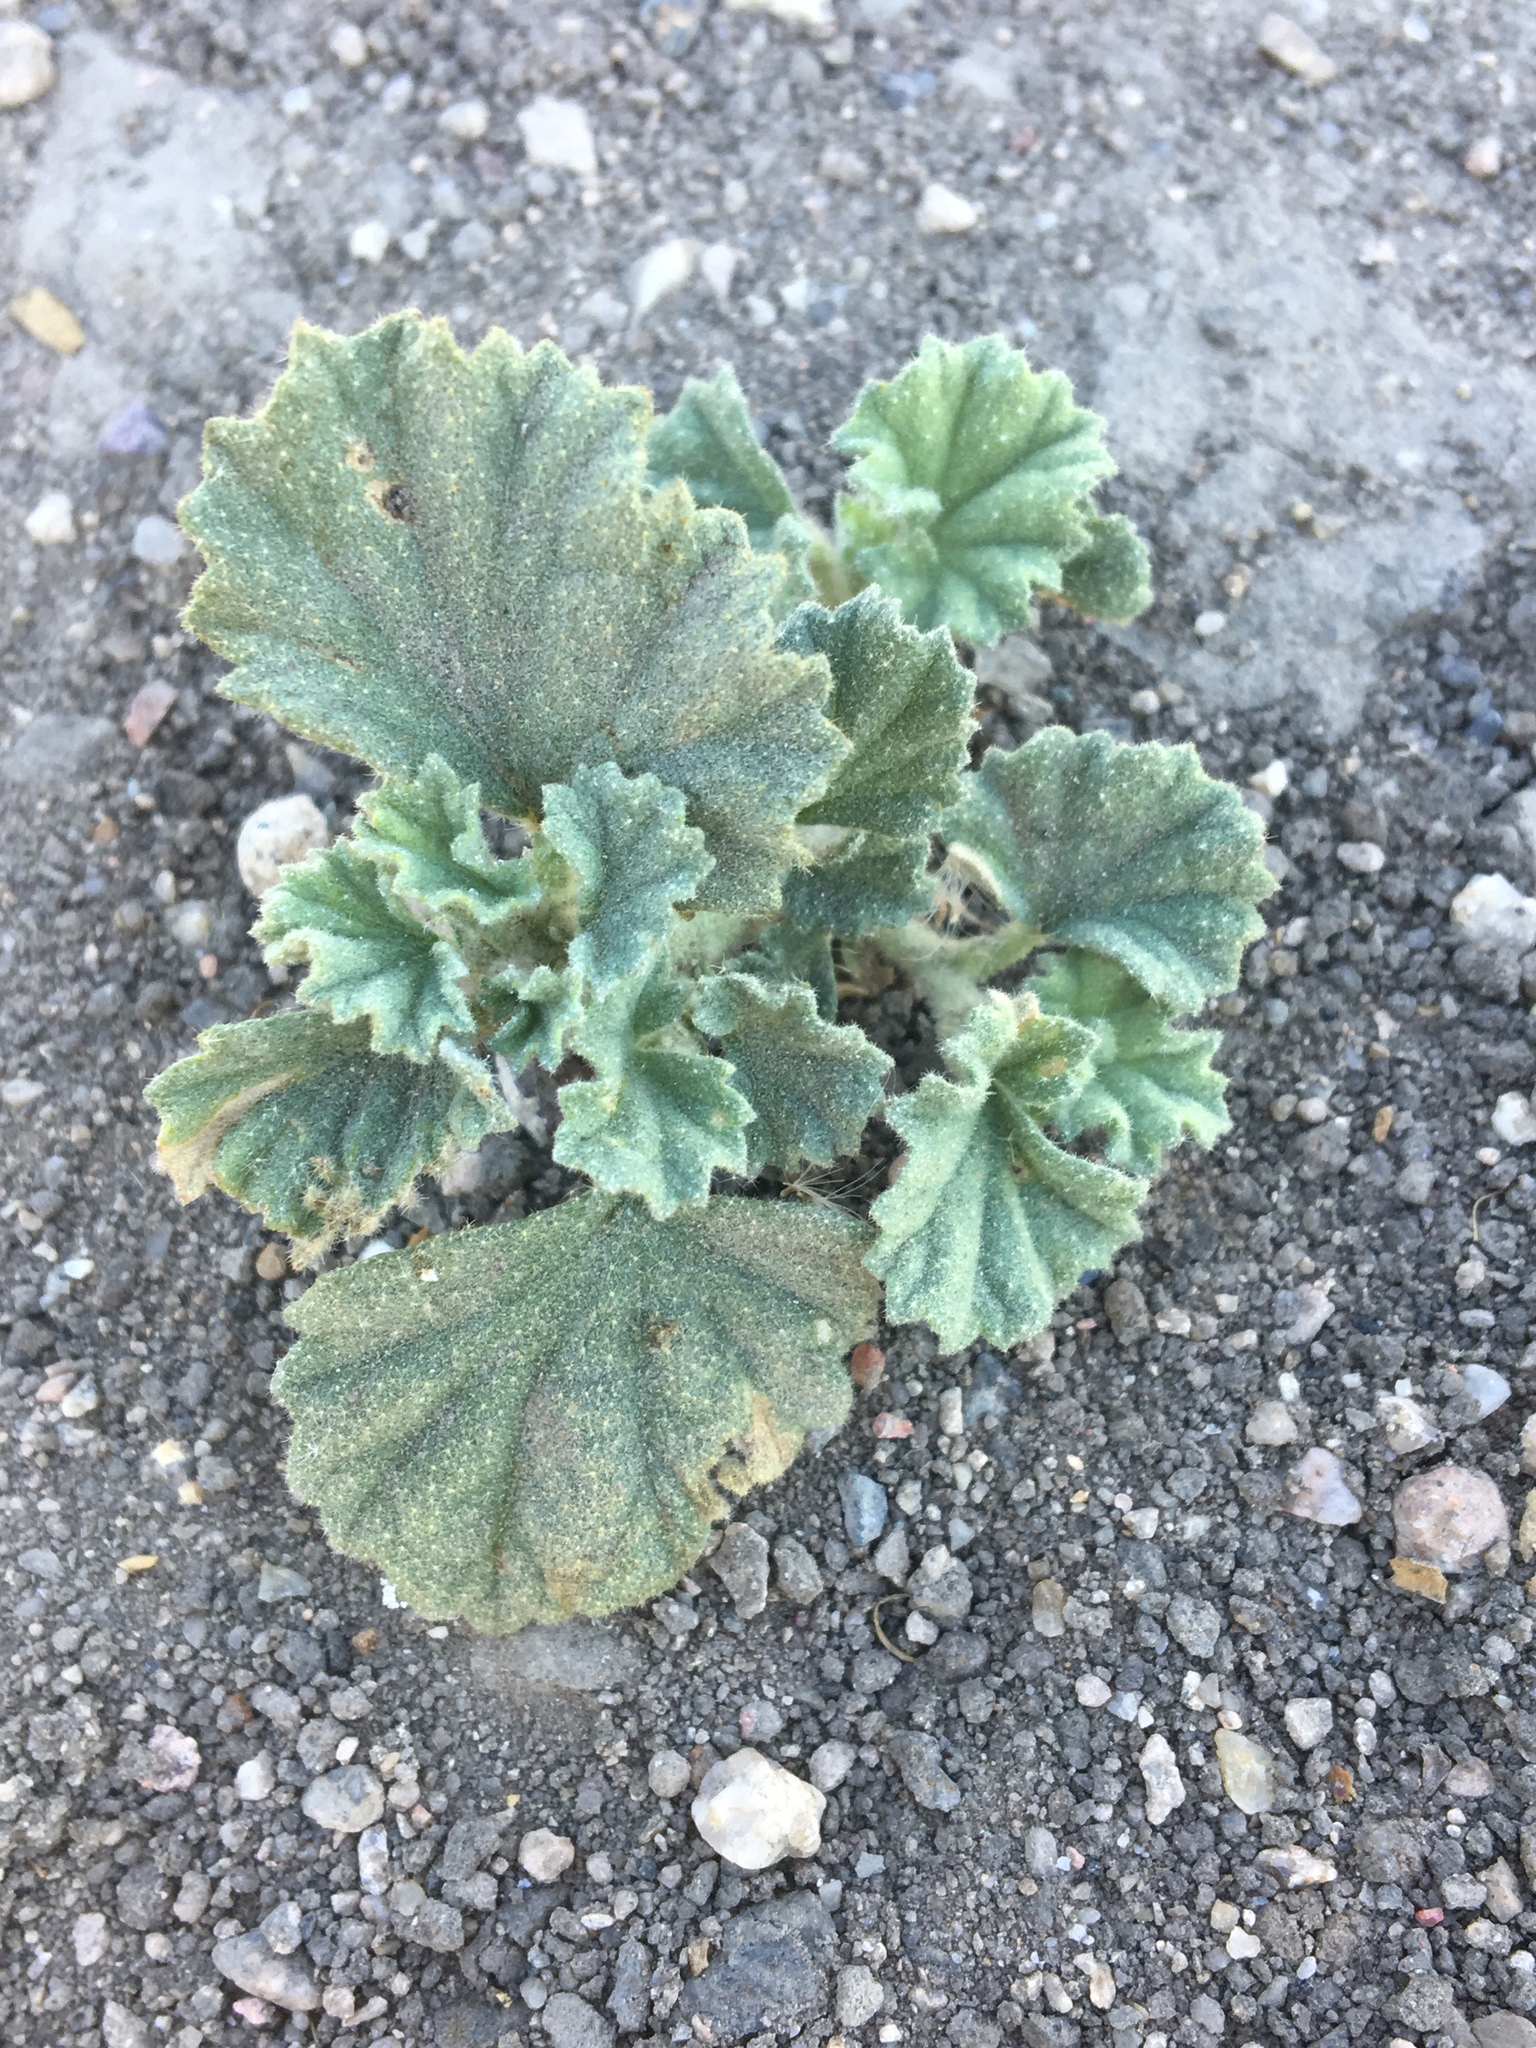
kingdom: Plantae
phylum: Tracheophyta
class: Magnoliopsida
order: Malvales
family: Malvaceae
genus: Malvella
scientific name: Malvella leprosa
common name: Alkali-mallow
